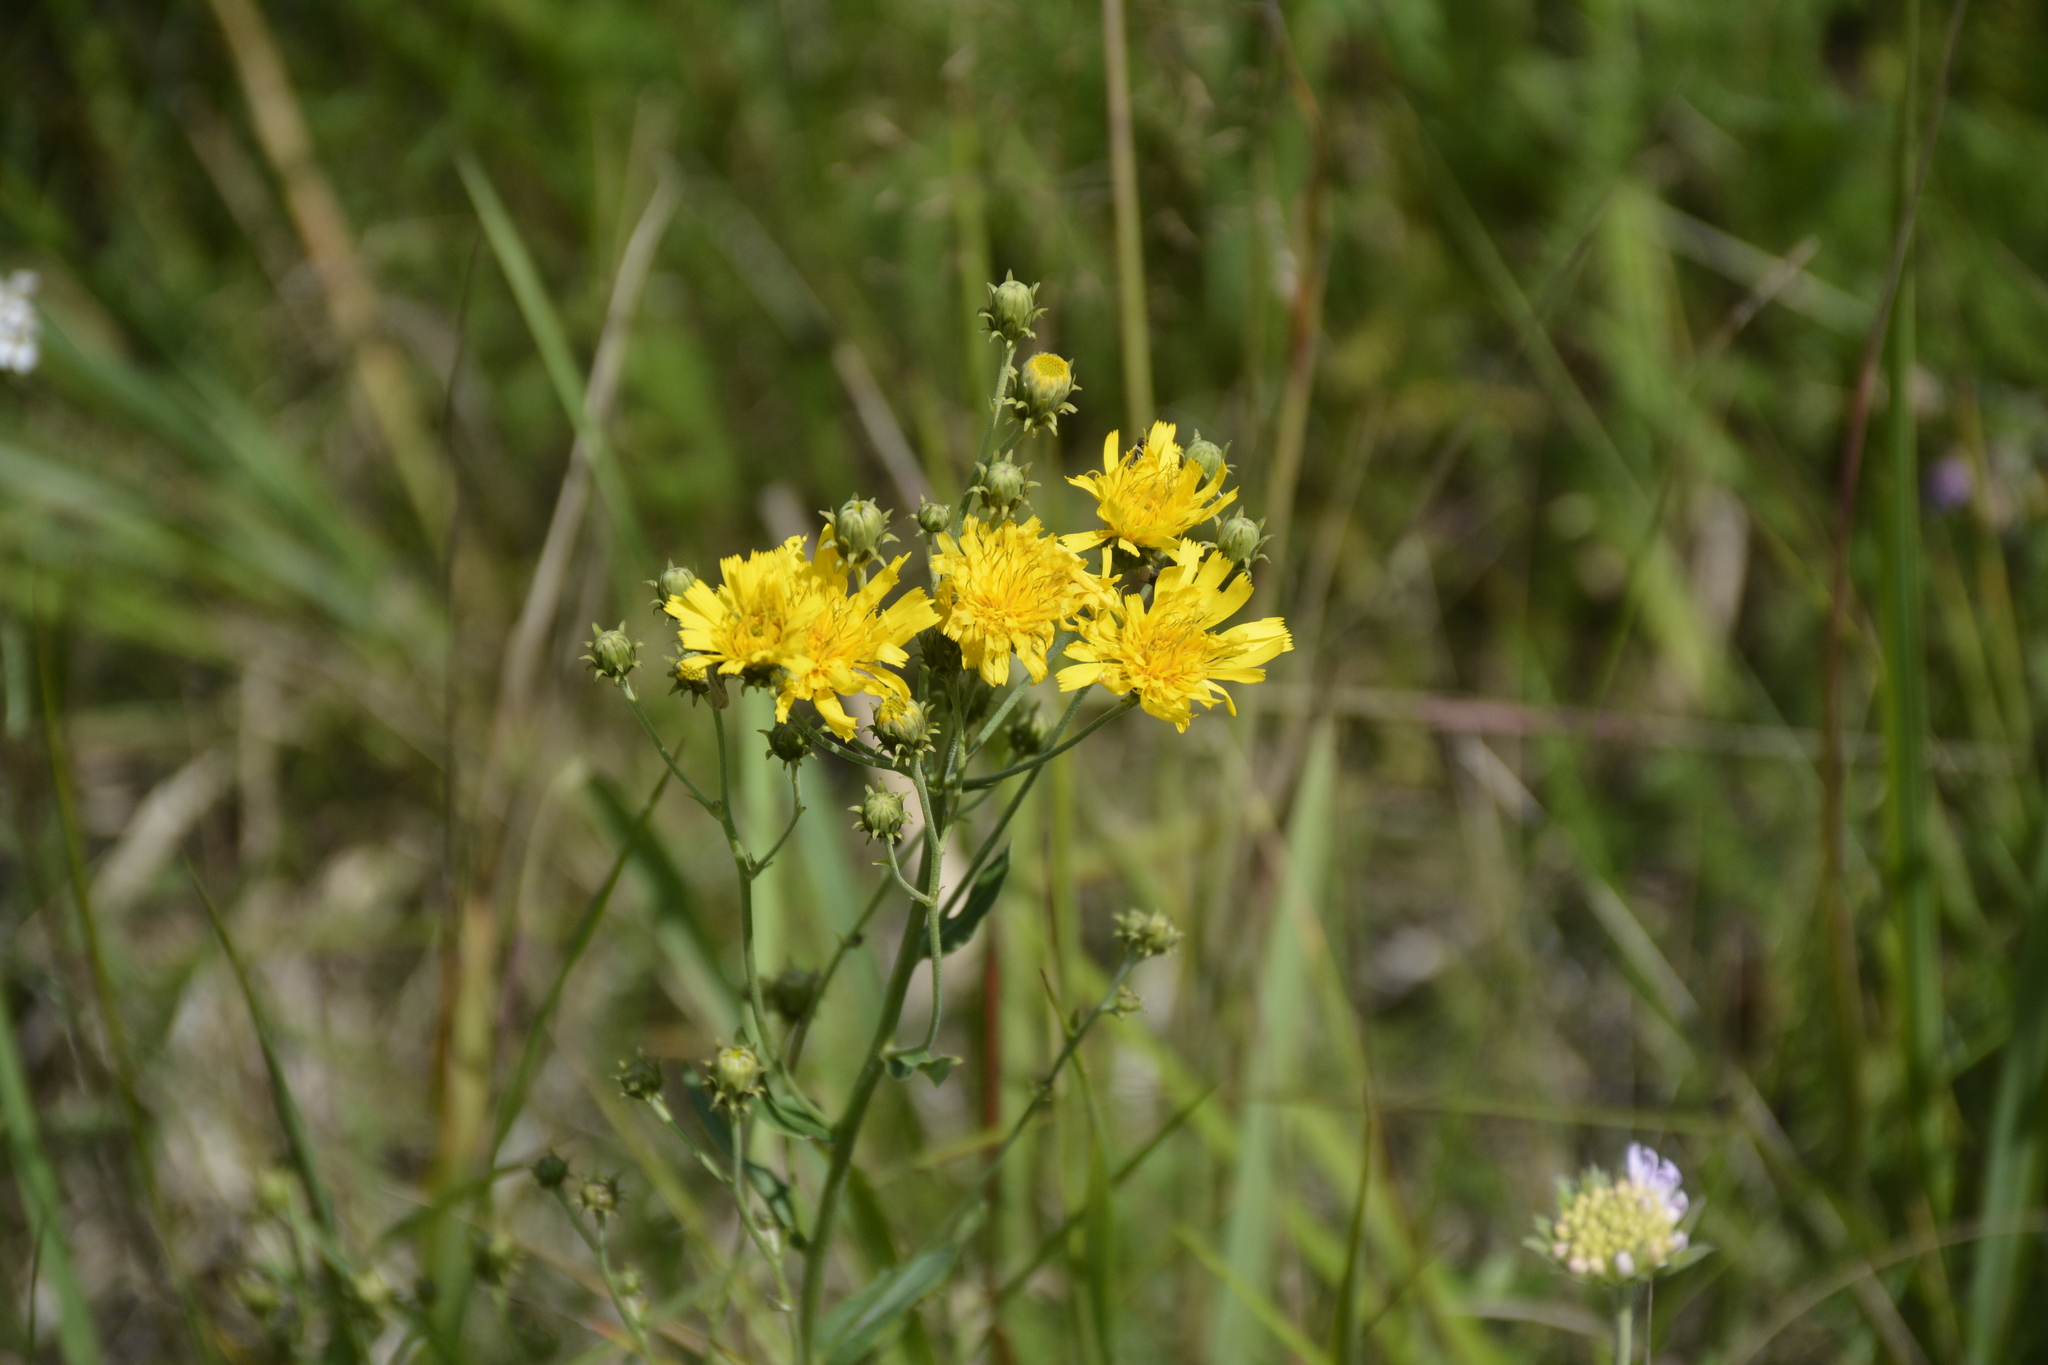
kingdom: Plantae
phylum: Tracheophyta
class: Magnoliopsida
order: Asterales
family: Asteraceae
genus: Hieracium
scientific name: Hieracium umbellatum
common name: Northern hawkweed
